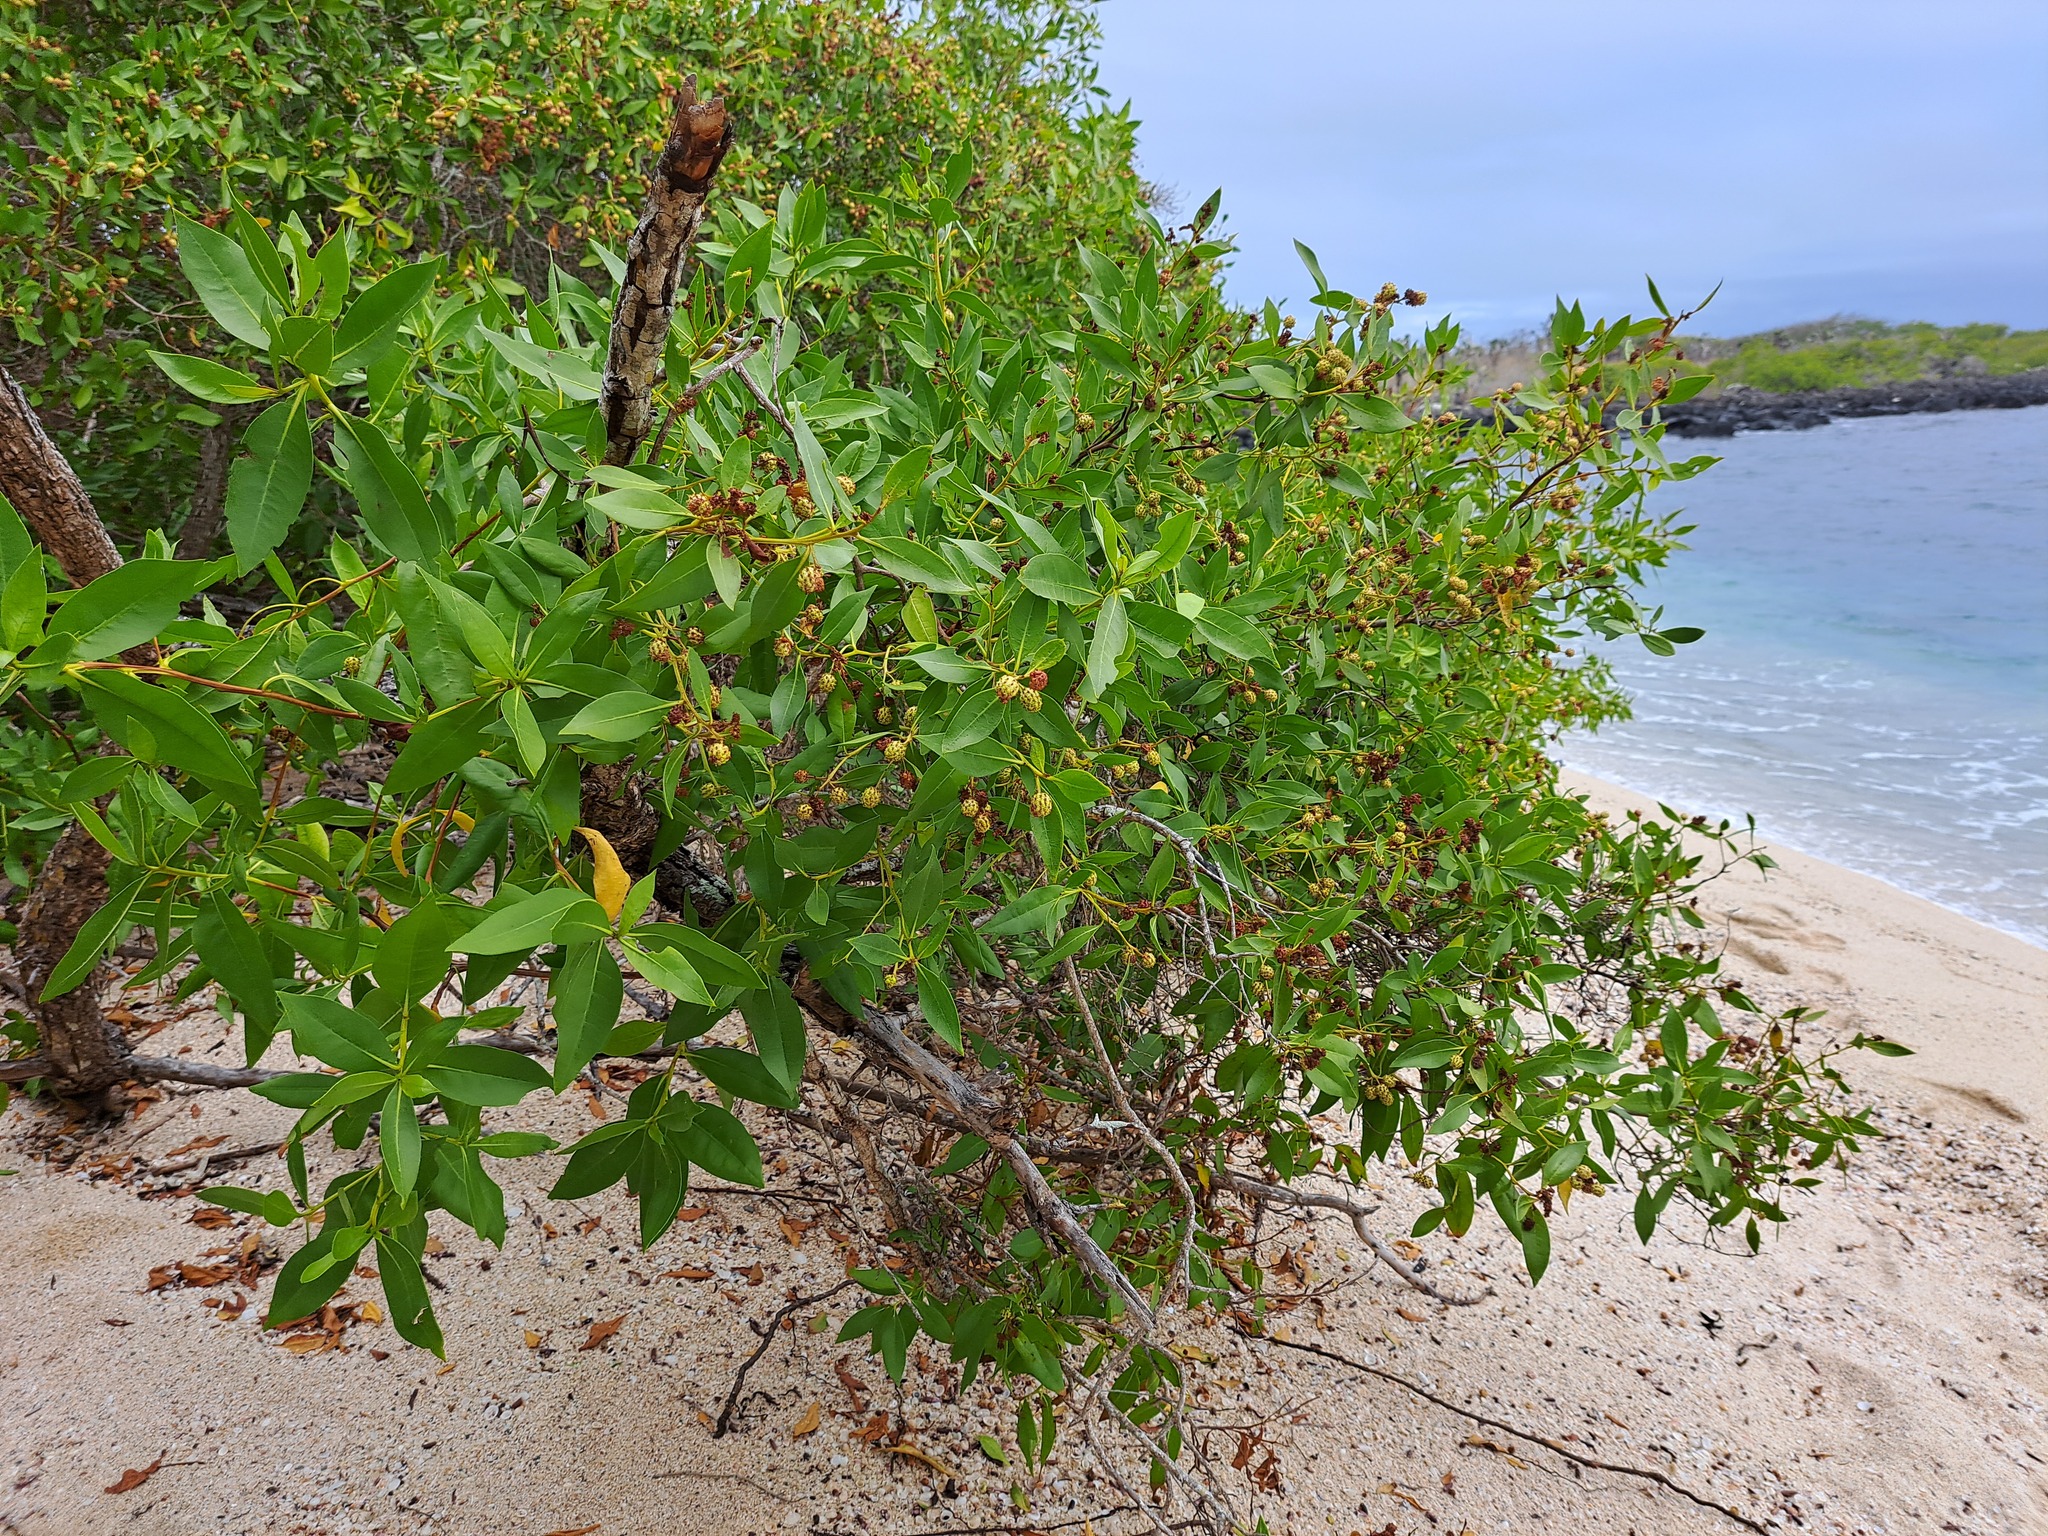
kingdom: Plantae
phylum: Tracheophyta
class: Magnoliopsida
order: Myrtales
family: Combretaceae
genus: Conocarpus
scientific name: Conocarpus erectus
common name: Button mangrove
